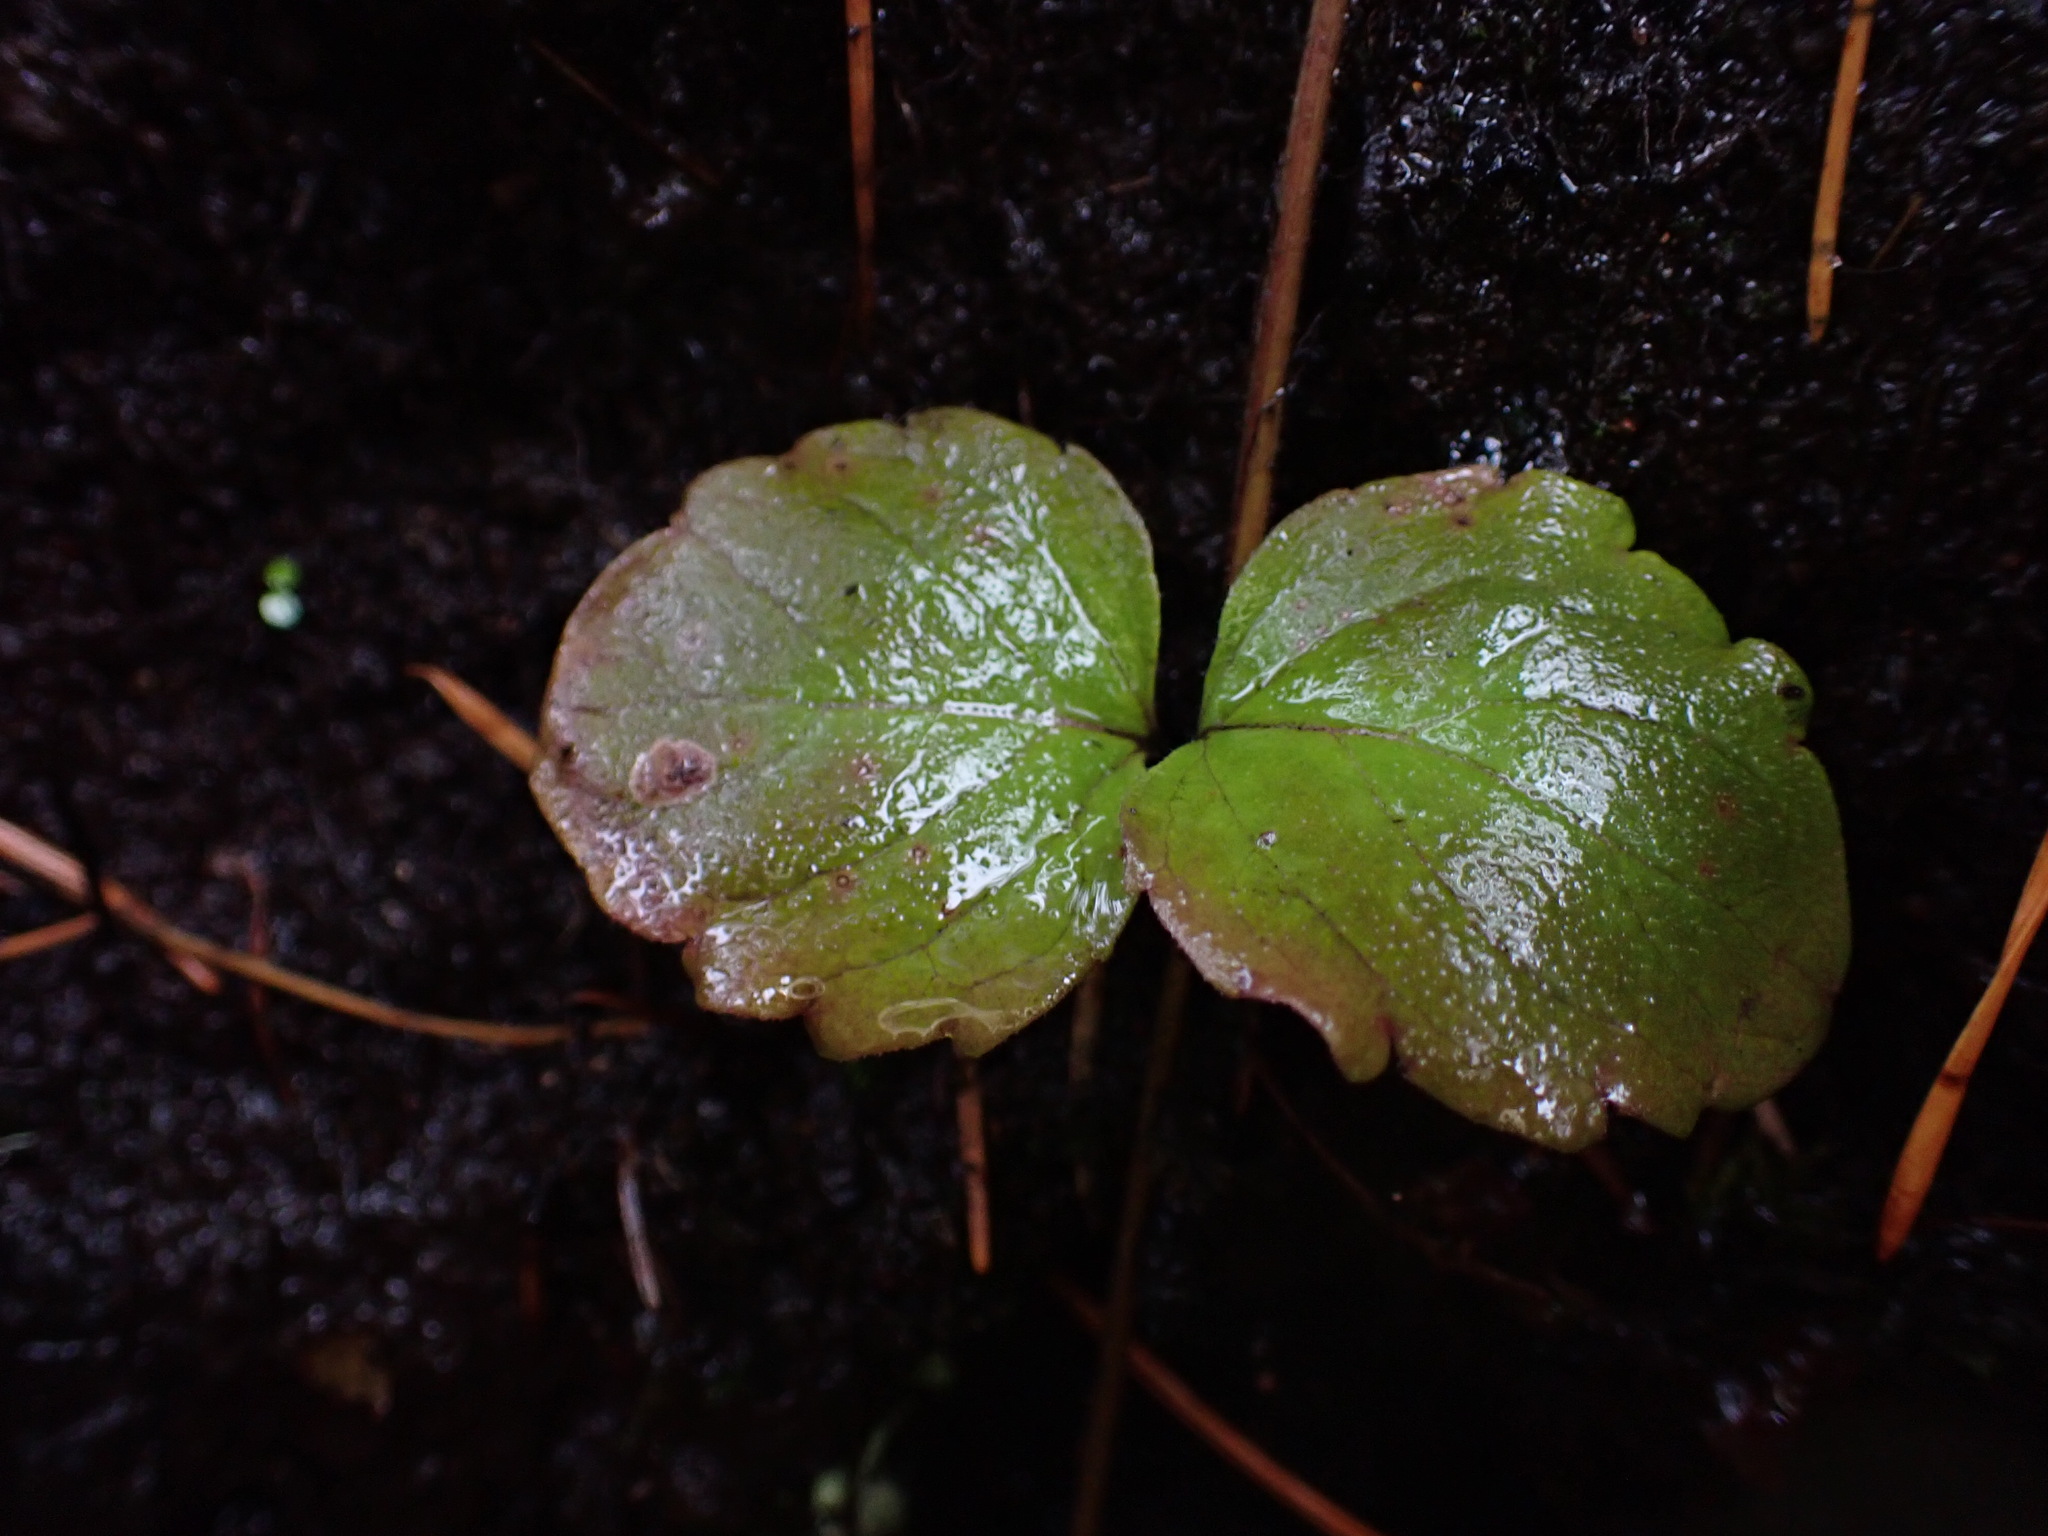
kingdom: Plantae
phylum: Tracheophyta
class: Magnoliopsida
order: Lamiales
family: Lamiaceae
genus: Micromeria
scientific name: Micromeria douglasii
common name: Yerba buena
